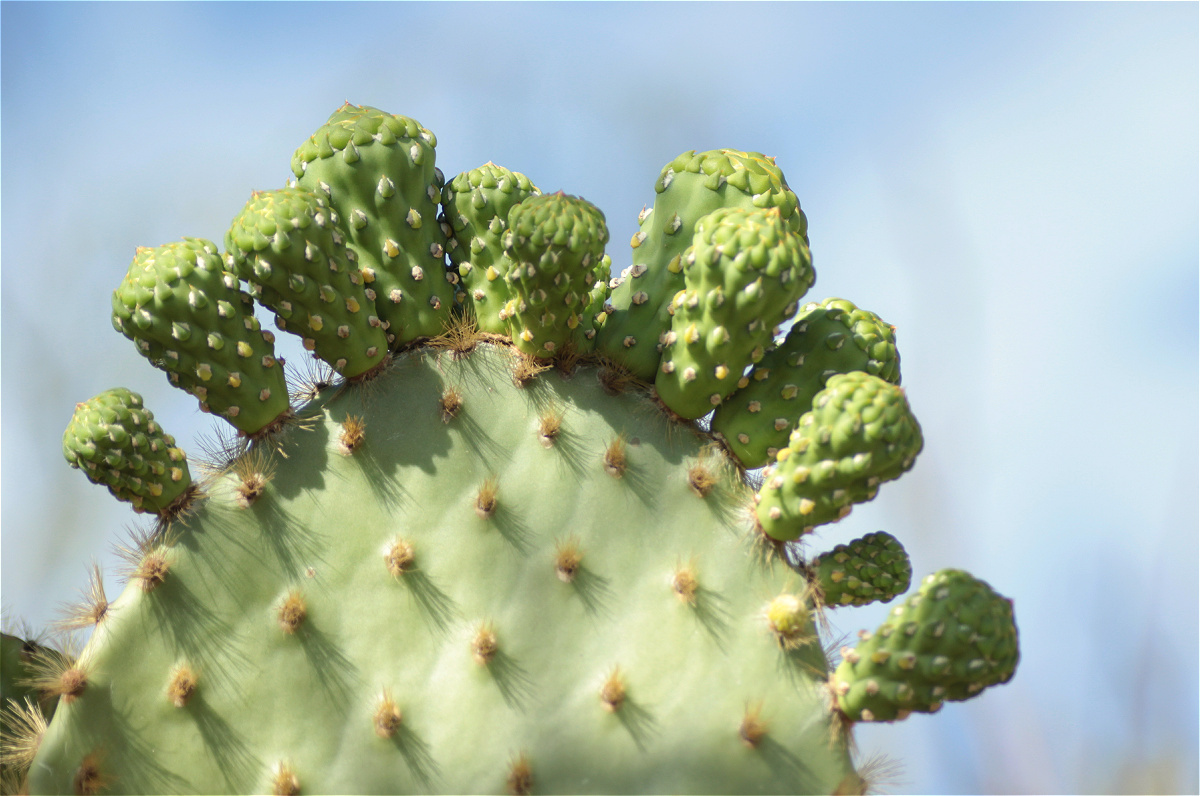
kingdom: Plantae
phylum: Tracheophyta
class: Magnoliopsida
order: Caryophyllales
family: Cactaceae
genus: Opuntia
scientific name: Opuntia galapageia
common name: Galápagos prickly pear
